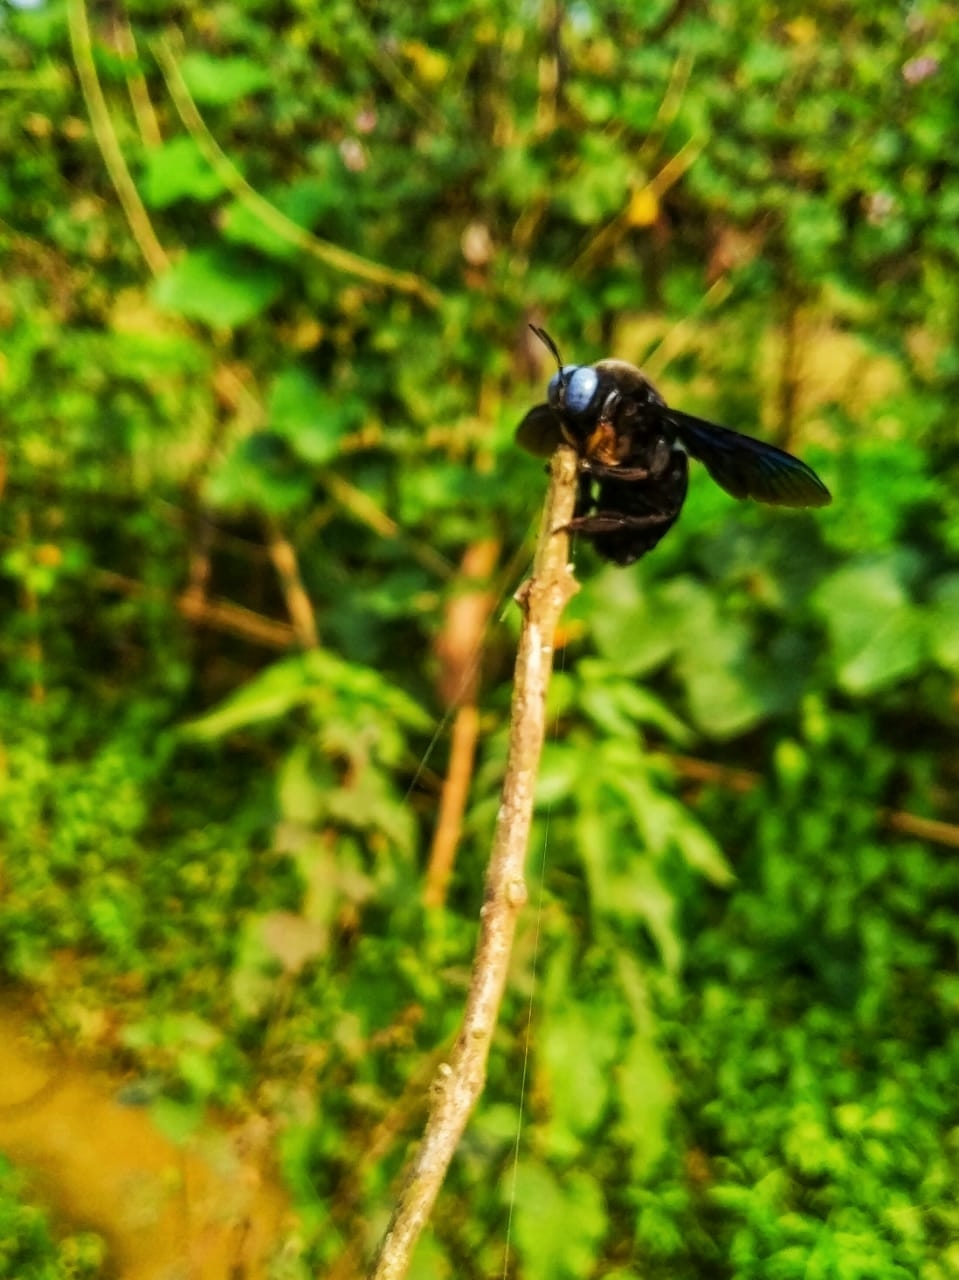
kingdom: Animalia
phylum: Arthropoda
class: Insecta
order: Hymenoptera
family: Apidae
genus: Xylocopa
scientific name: Xylocopa latipes
